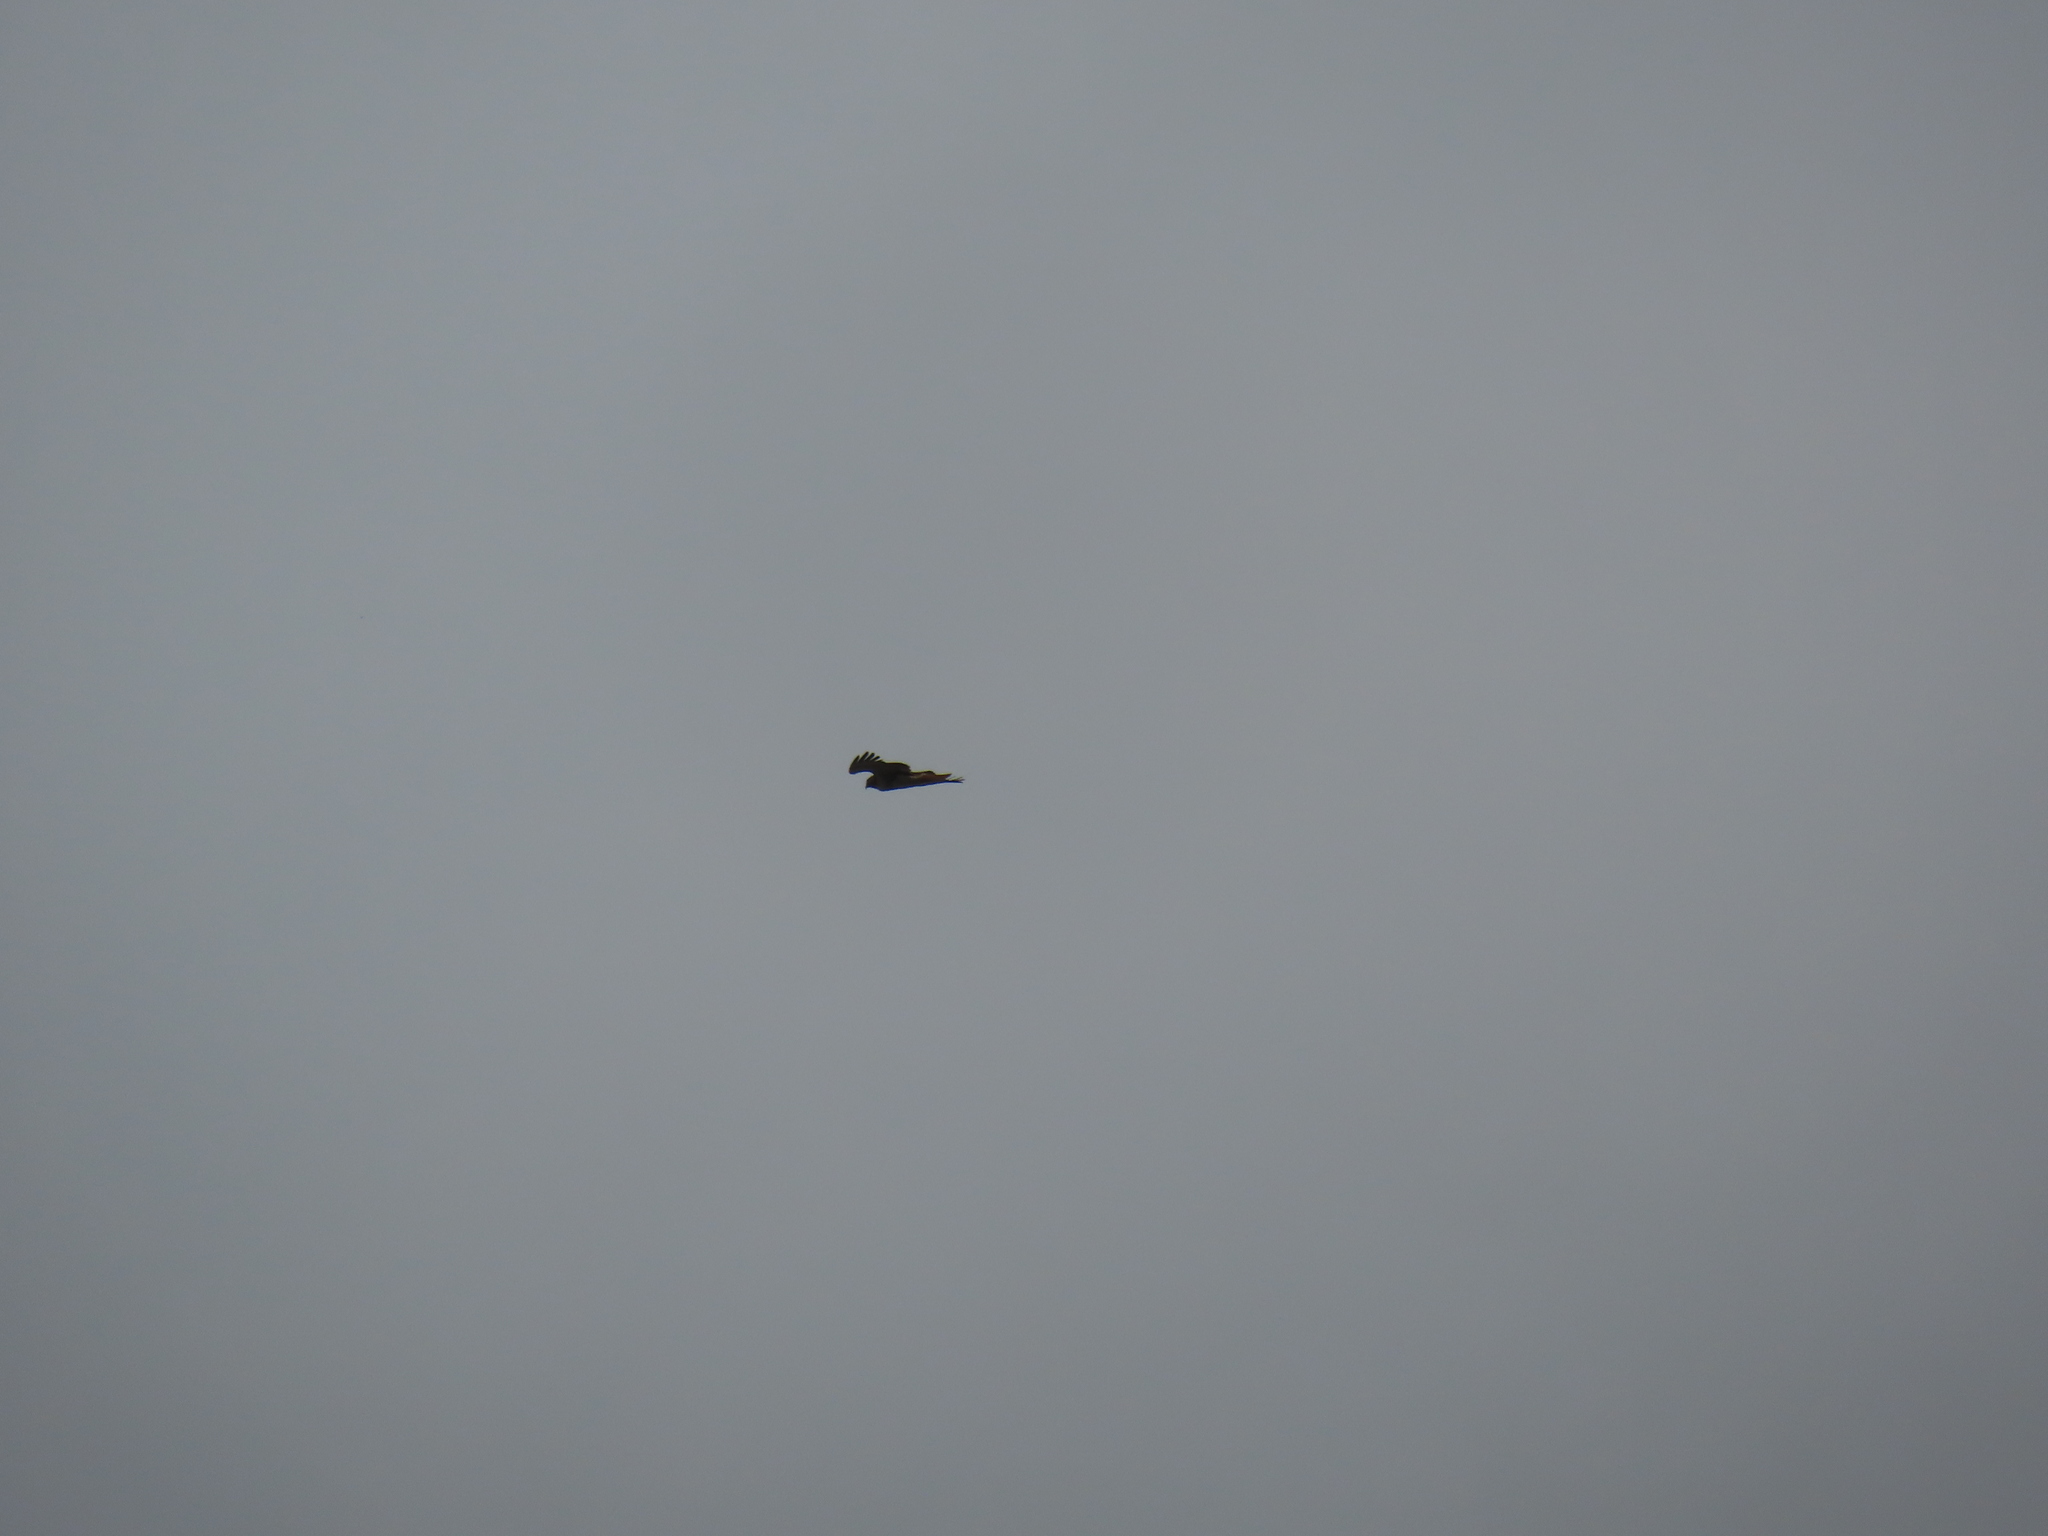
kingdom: Animalia
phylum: Chordata
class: Aves
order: Accipitriformes
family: Accipitridae
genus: Buteo
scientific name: Buteo jamaicensis
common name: Red-tailed hawk
